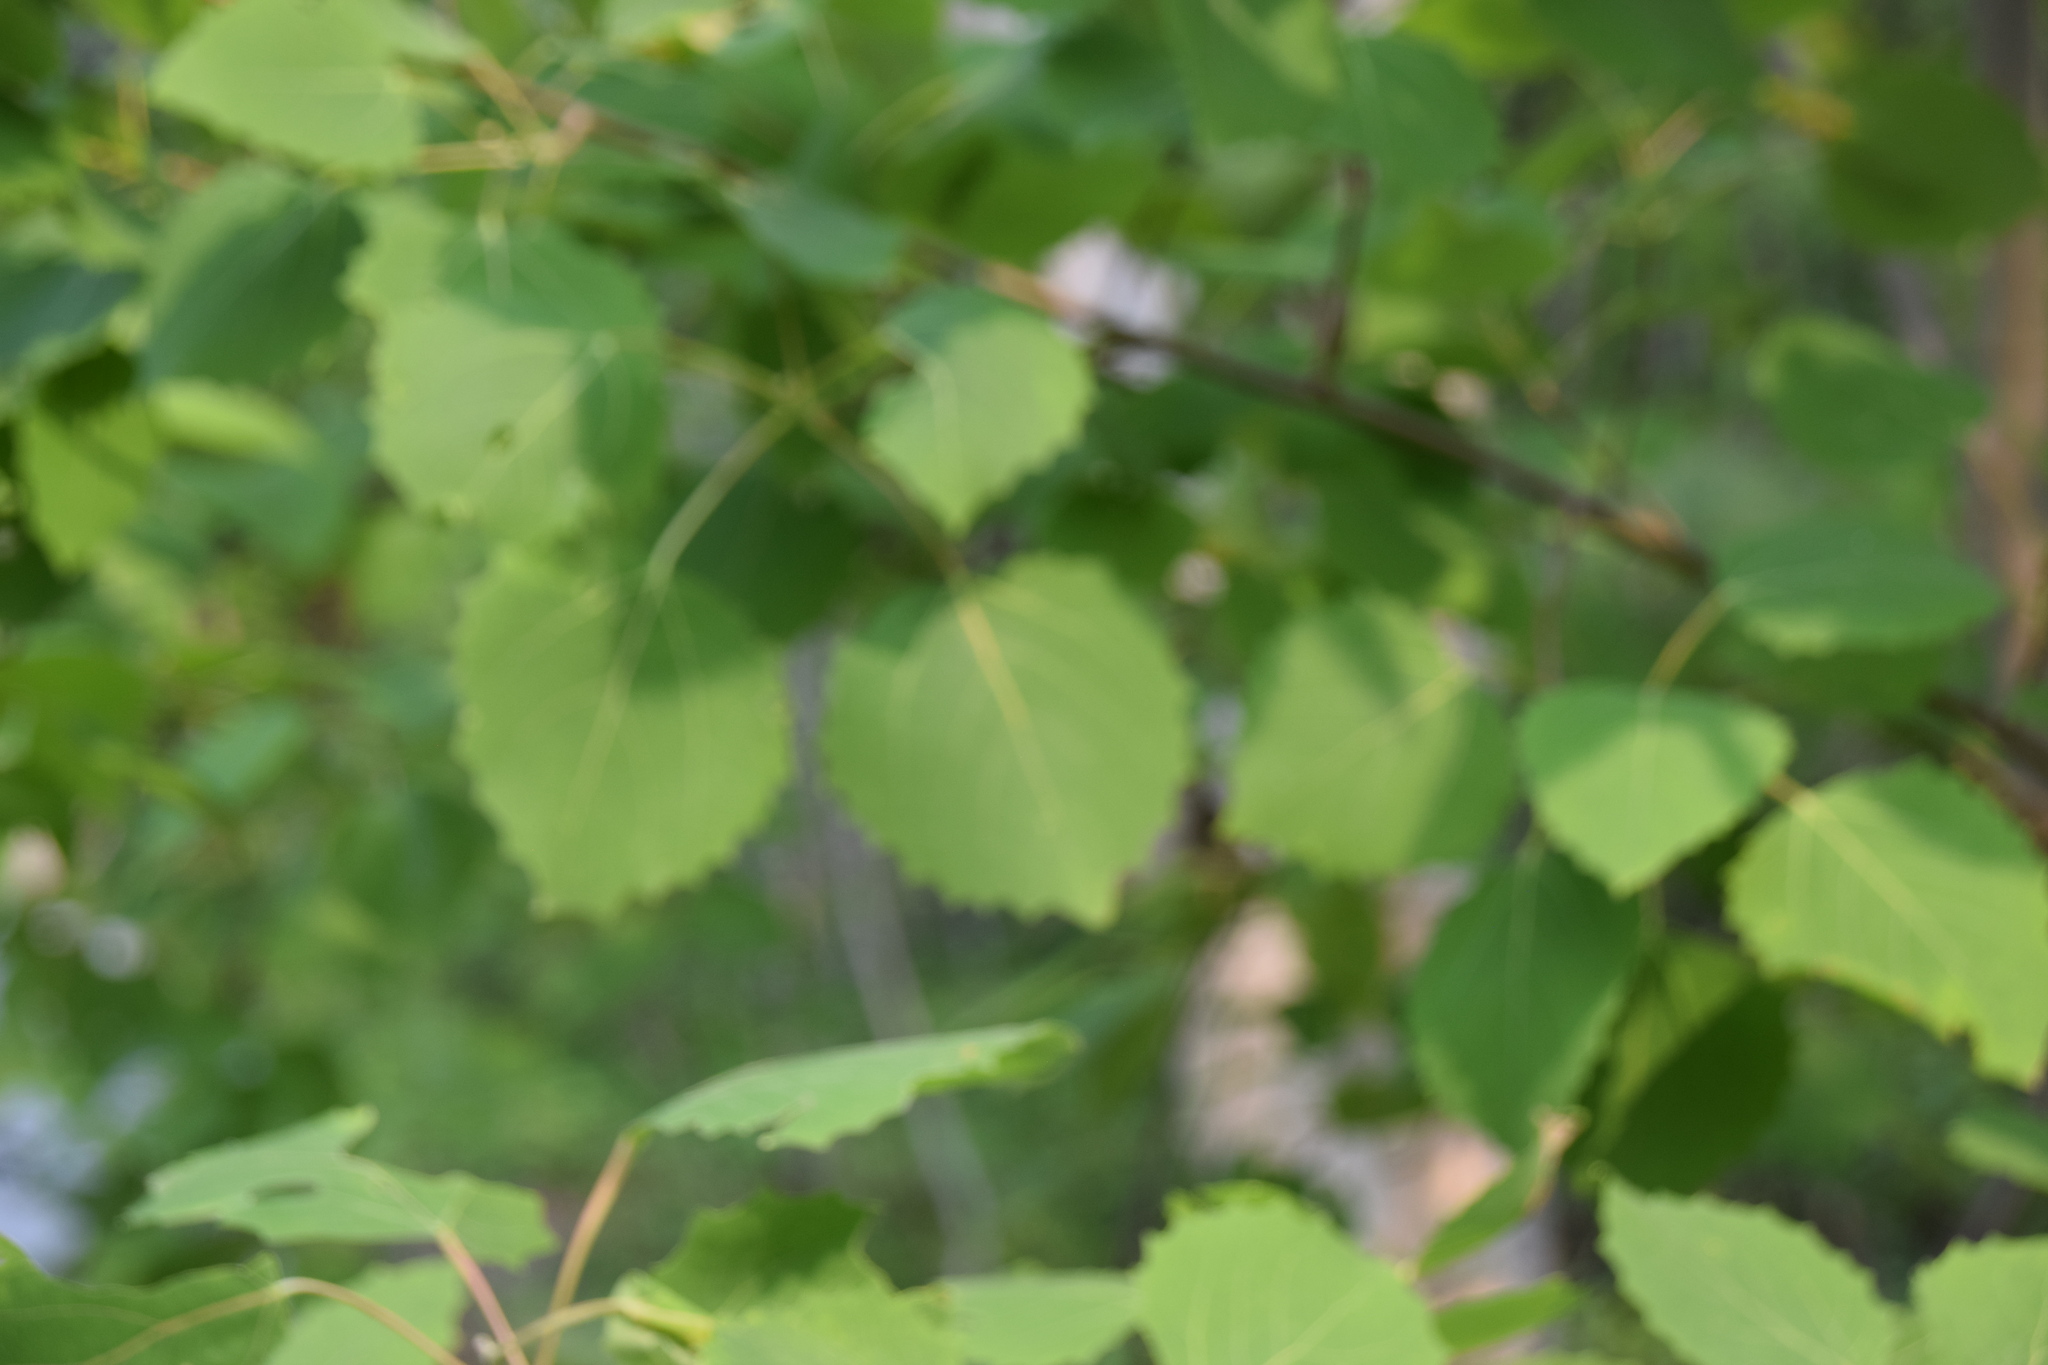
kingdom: Plantae
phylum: Tracheophyta
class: Magnoliopsida
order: Malpighiales
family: Salicaceae
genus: Populus
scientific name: Populus grandidentata
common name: Bigtooth aspen
